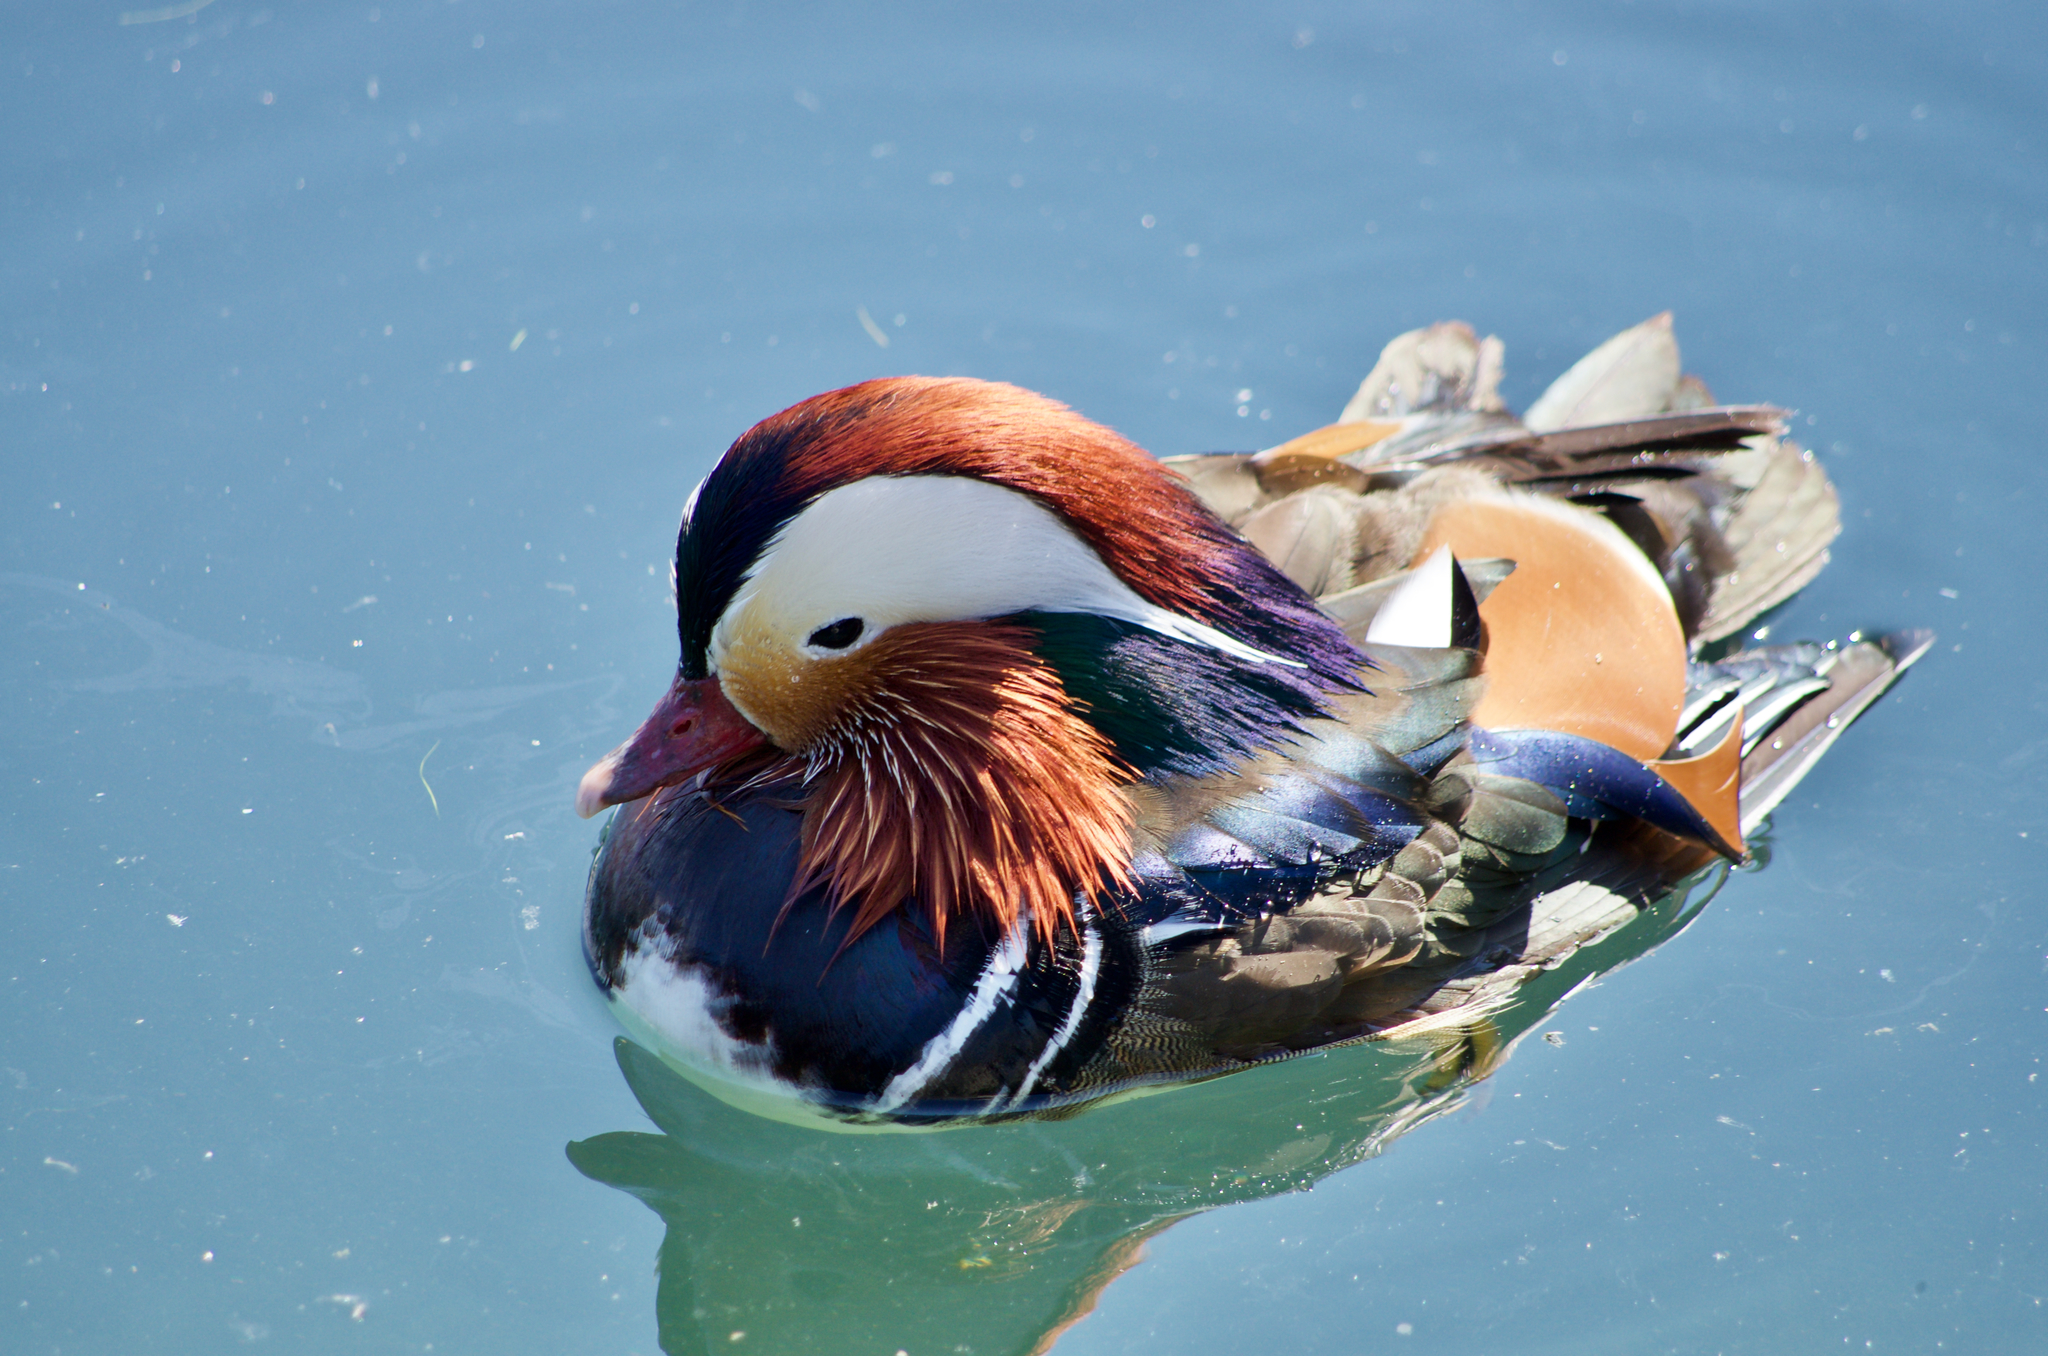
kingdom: Animalia
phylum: Chordata
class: Aves
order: Anseriformes
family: Anatidae
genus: Aix
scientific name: Aix galericulata
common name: Mandarin duck
